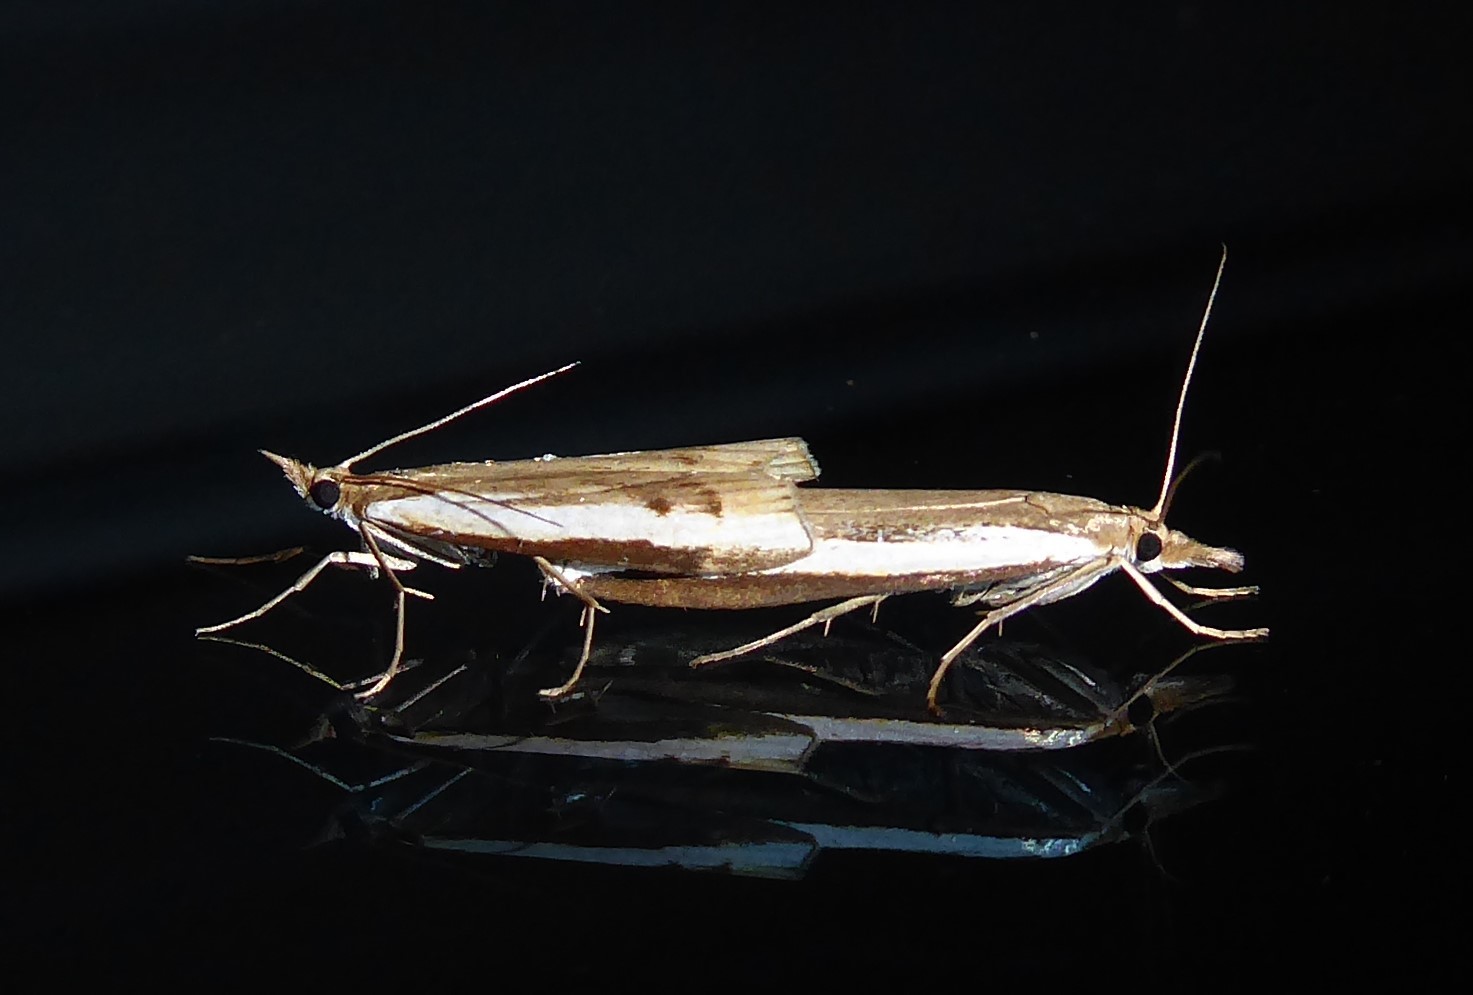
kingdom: Animalia
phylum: Arthropoda
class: Insecta
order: Lepidoptera
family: Crambidae
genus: Orocrambus
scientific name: Orocrambus flexuosellus
